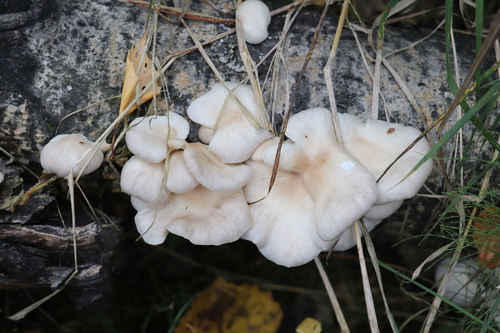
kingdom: Fungi
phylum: Basidiomycota
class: Agaricomycetes
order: Agaricales
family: Pleurotaceae
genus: Pleurotus
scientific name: Pleurotus pulmonarius
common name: Pale oyster
